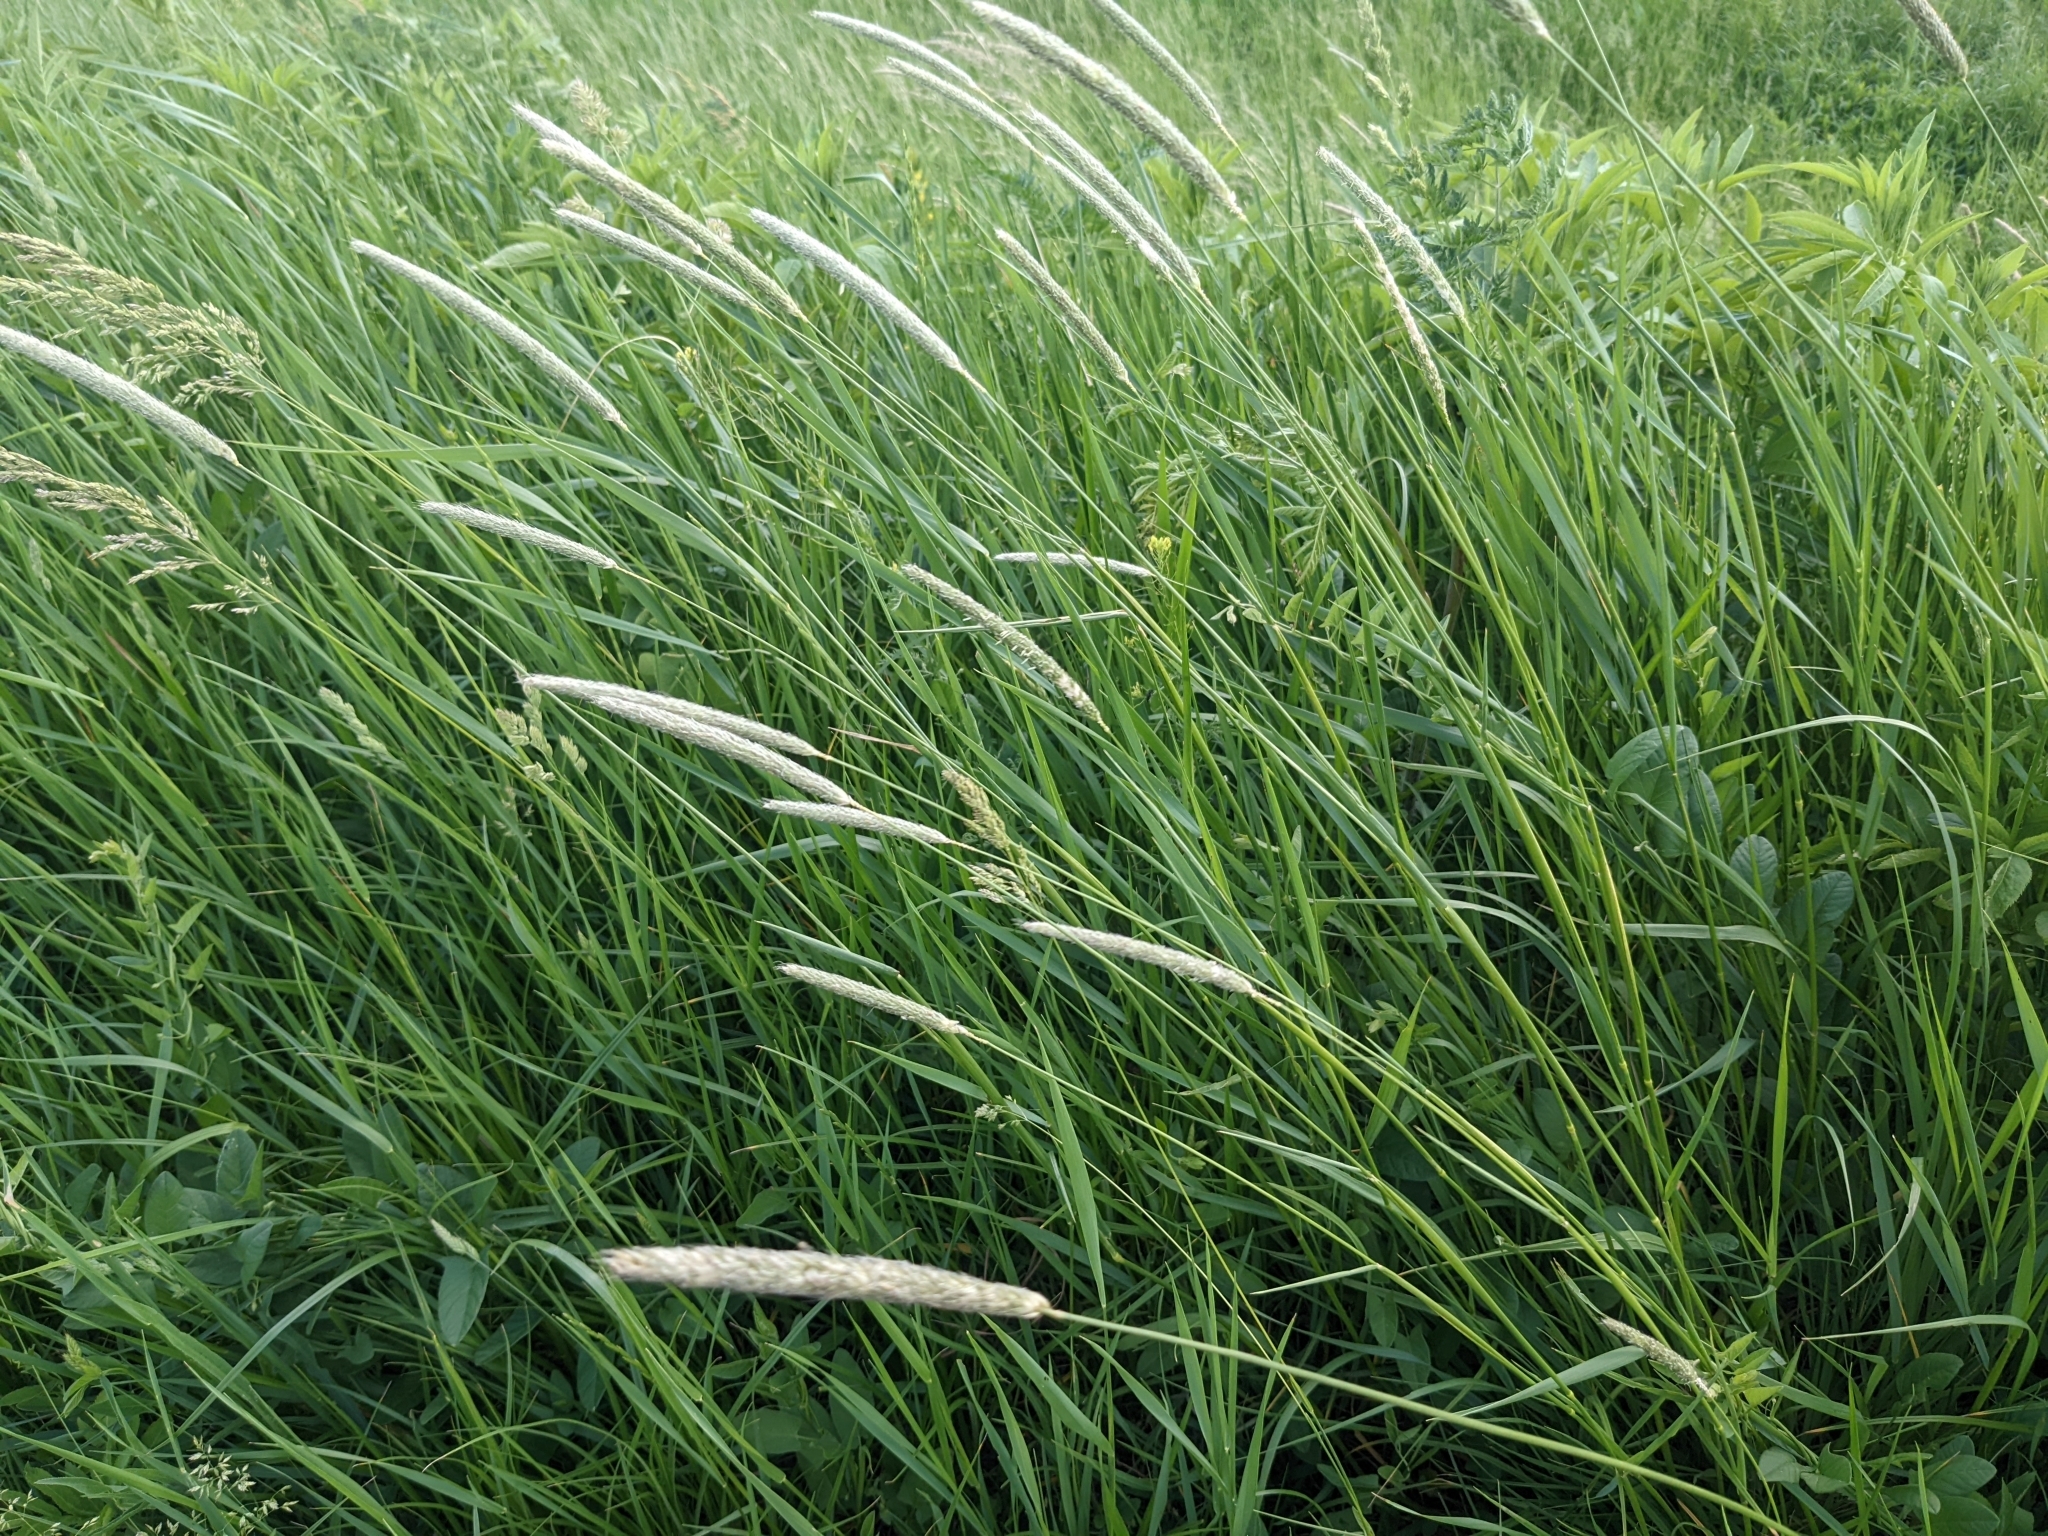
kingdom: Plantae
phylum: Tracheophyta
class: Liliopsida
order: Poales
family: Poaceae
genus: Alopecurus
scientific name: Alopecurus pratensis
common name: Meadow foxtail
